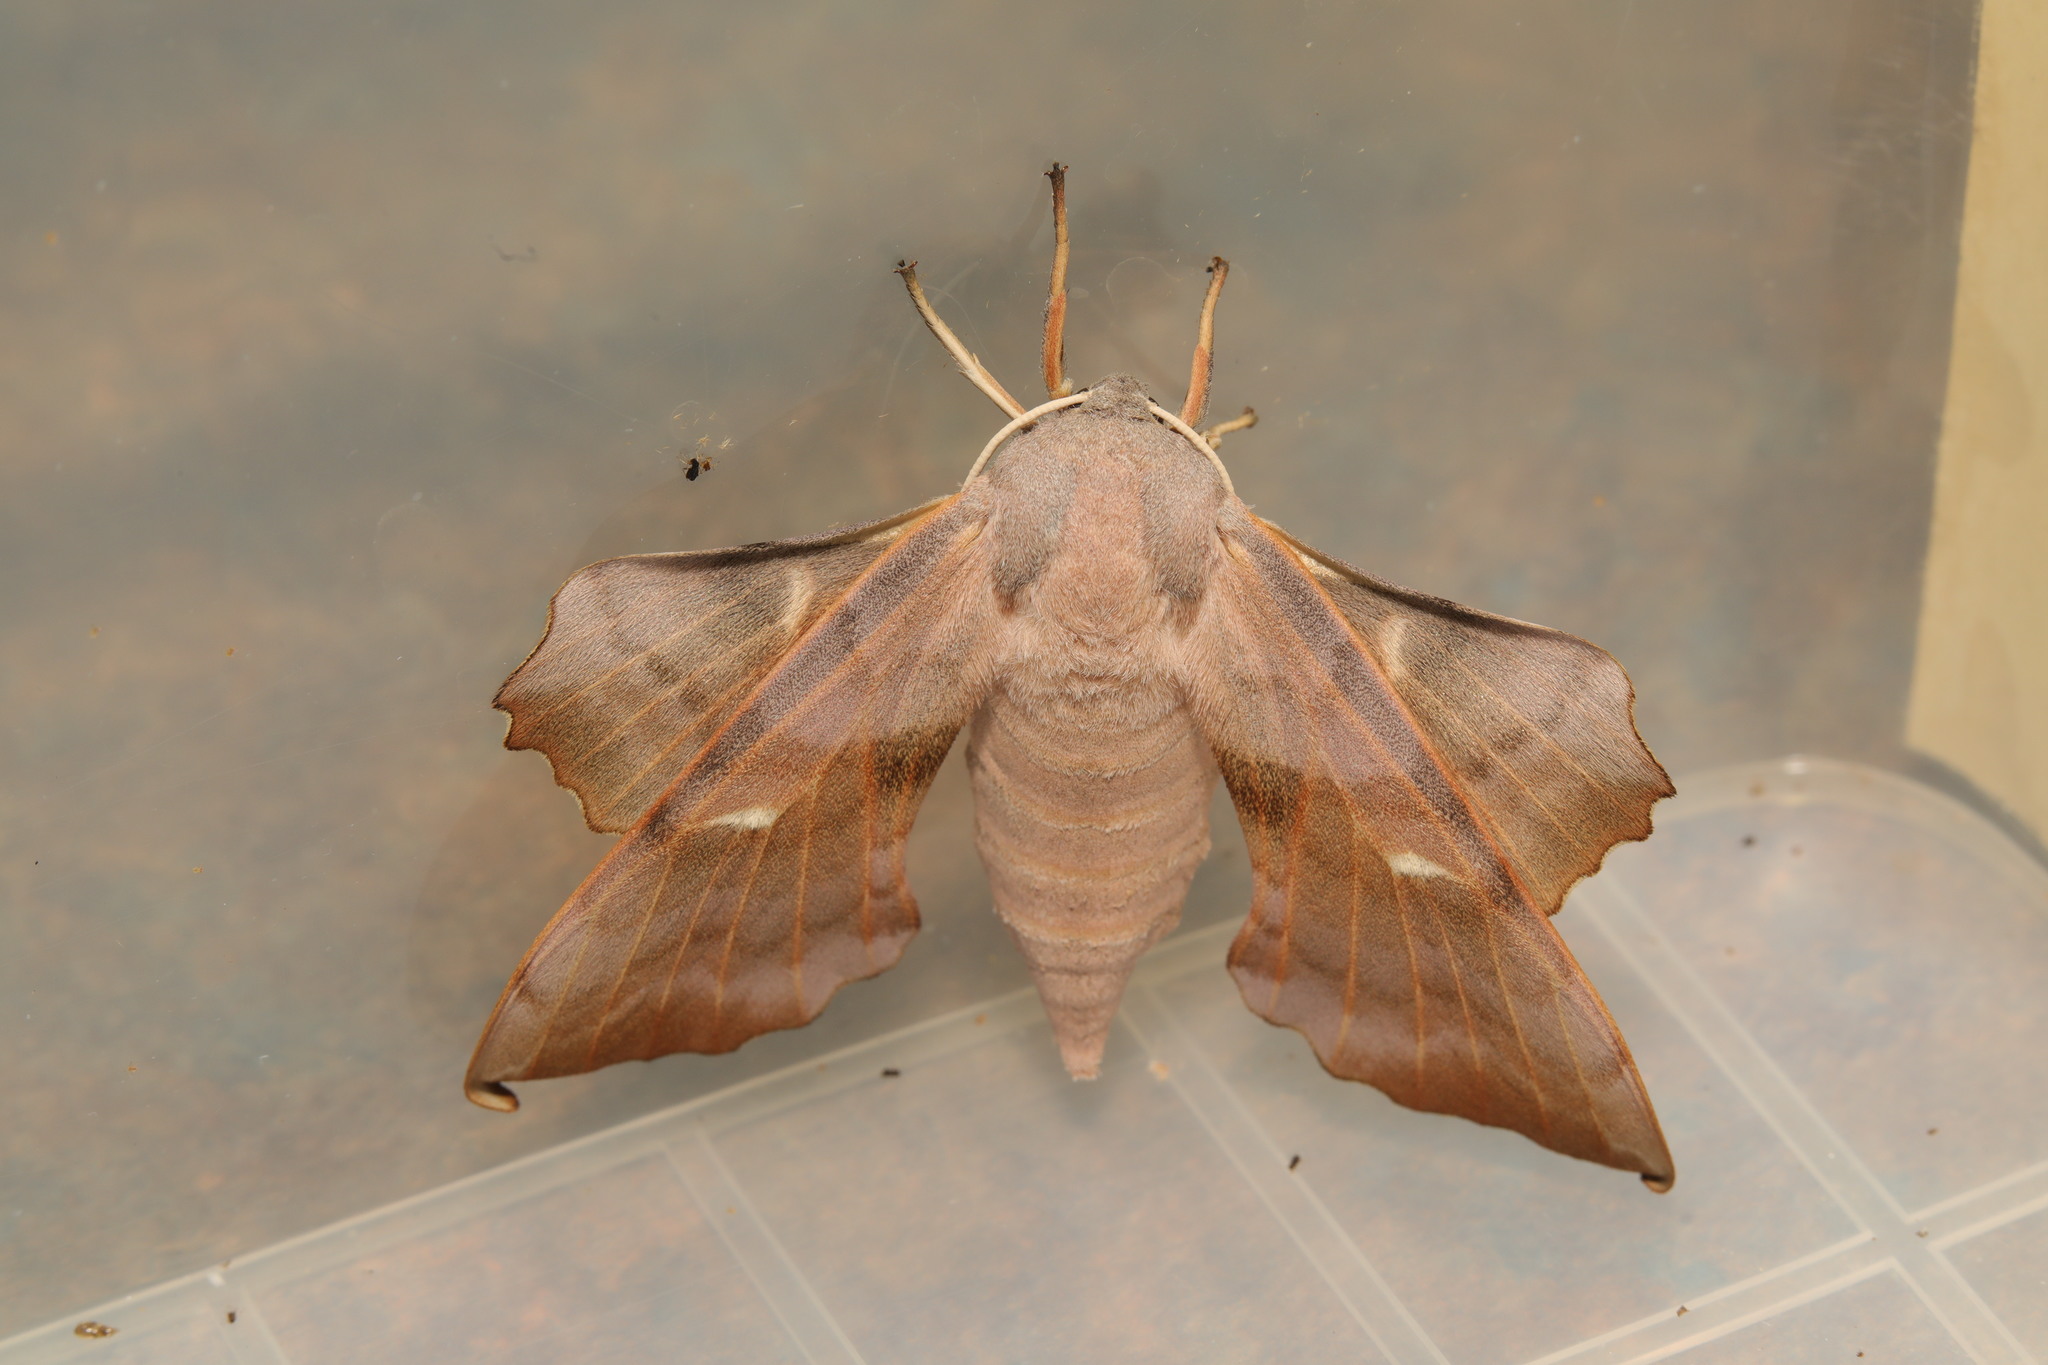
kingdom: Animalia
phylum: Arthropoda
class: Insecta
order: Lepidoptera
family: Sphingidae
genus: Laothoe
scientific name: Laothoe populi
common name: Poplar hawk-moth
